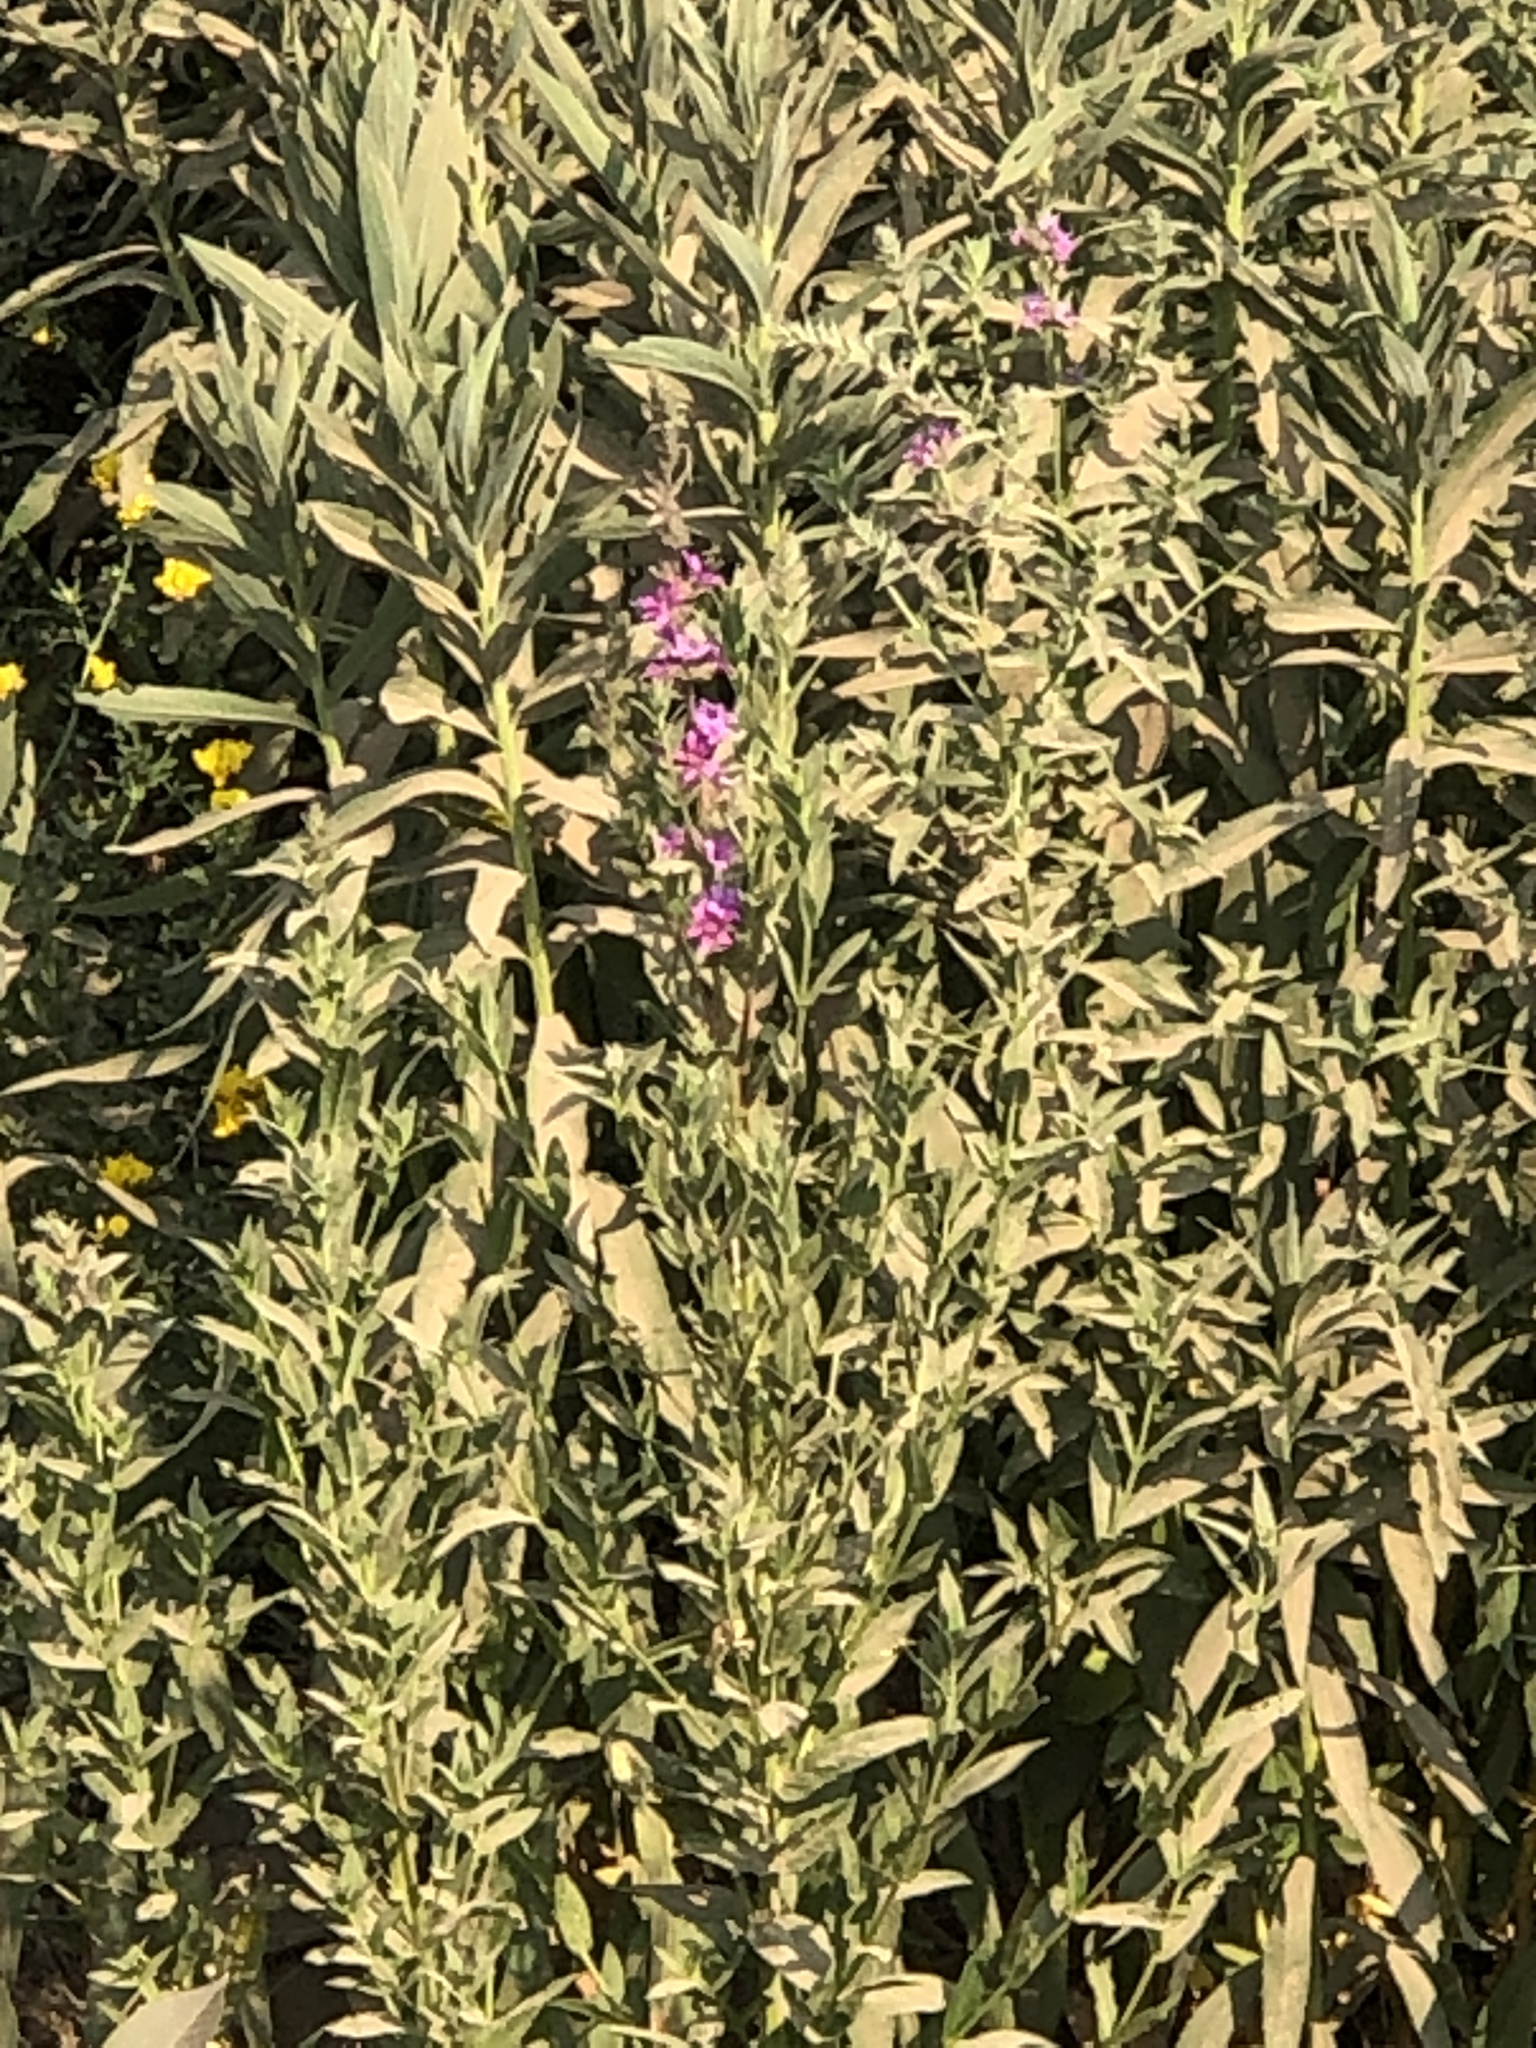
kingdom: Plantae
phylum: Tracheophyta
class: Magnoliopsida
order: Myrtales
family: Lythraceae
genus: Lythrum
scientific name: Lythrum salicaria
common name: Purple loosestrife
